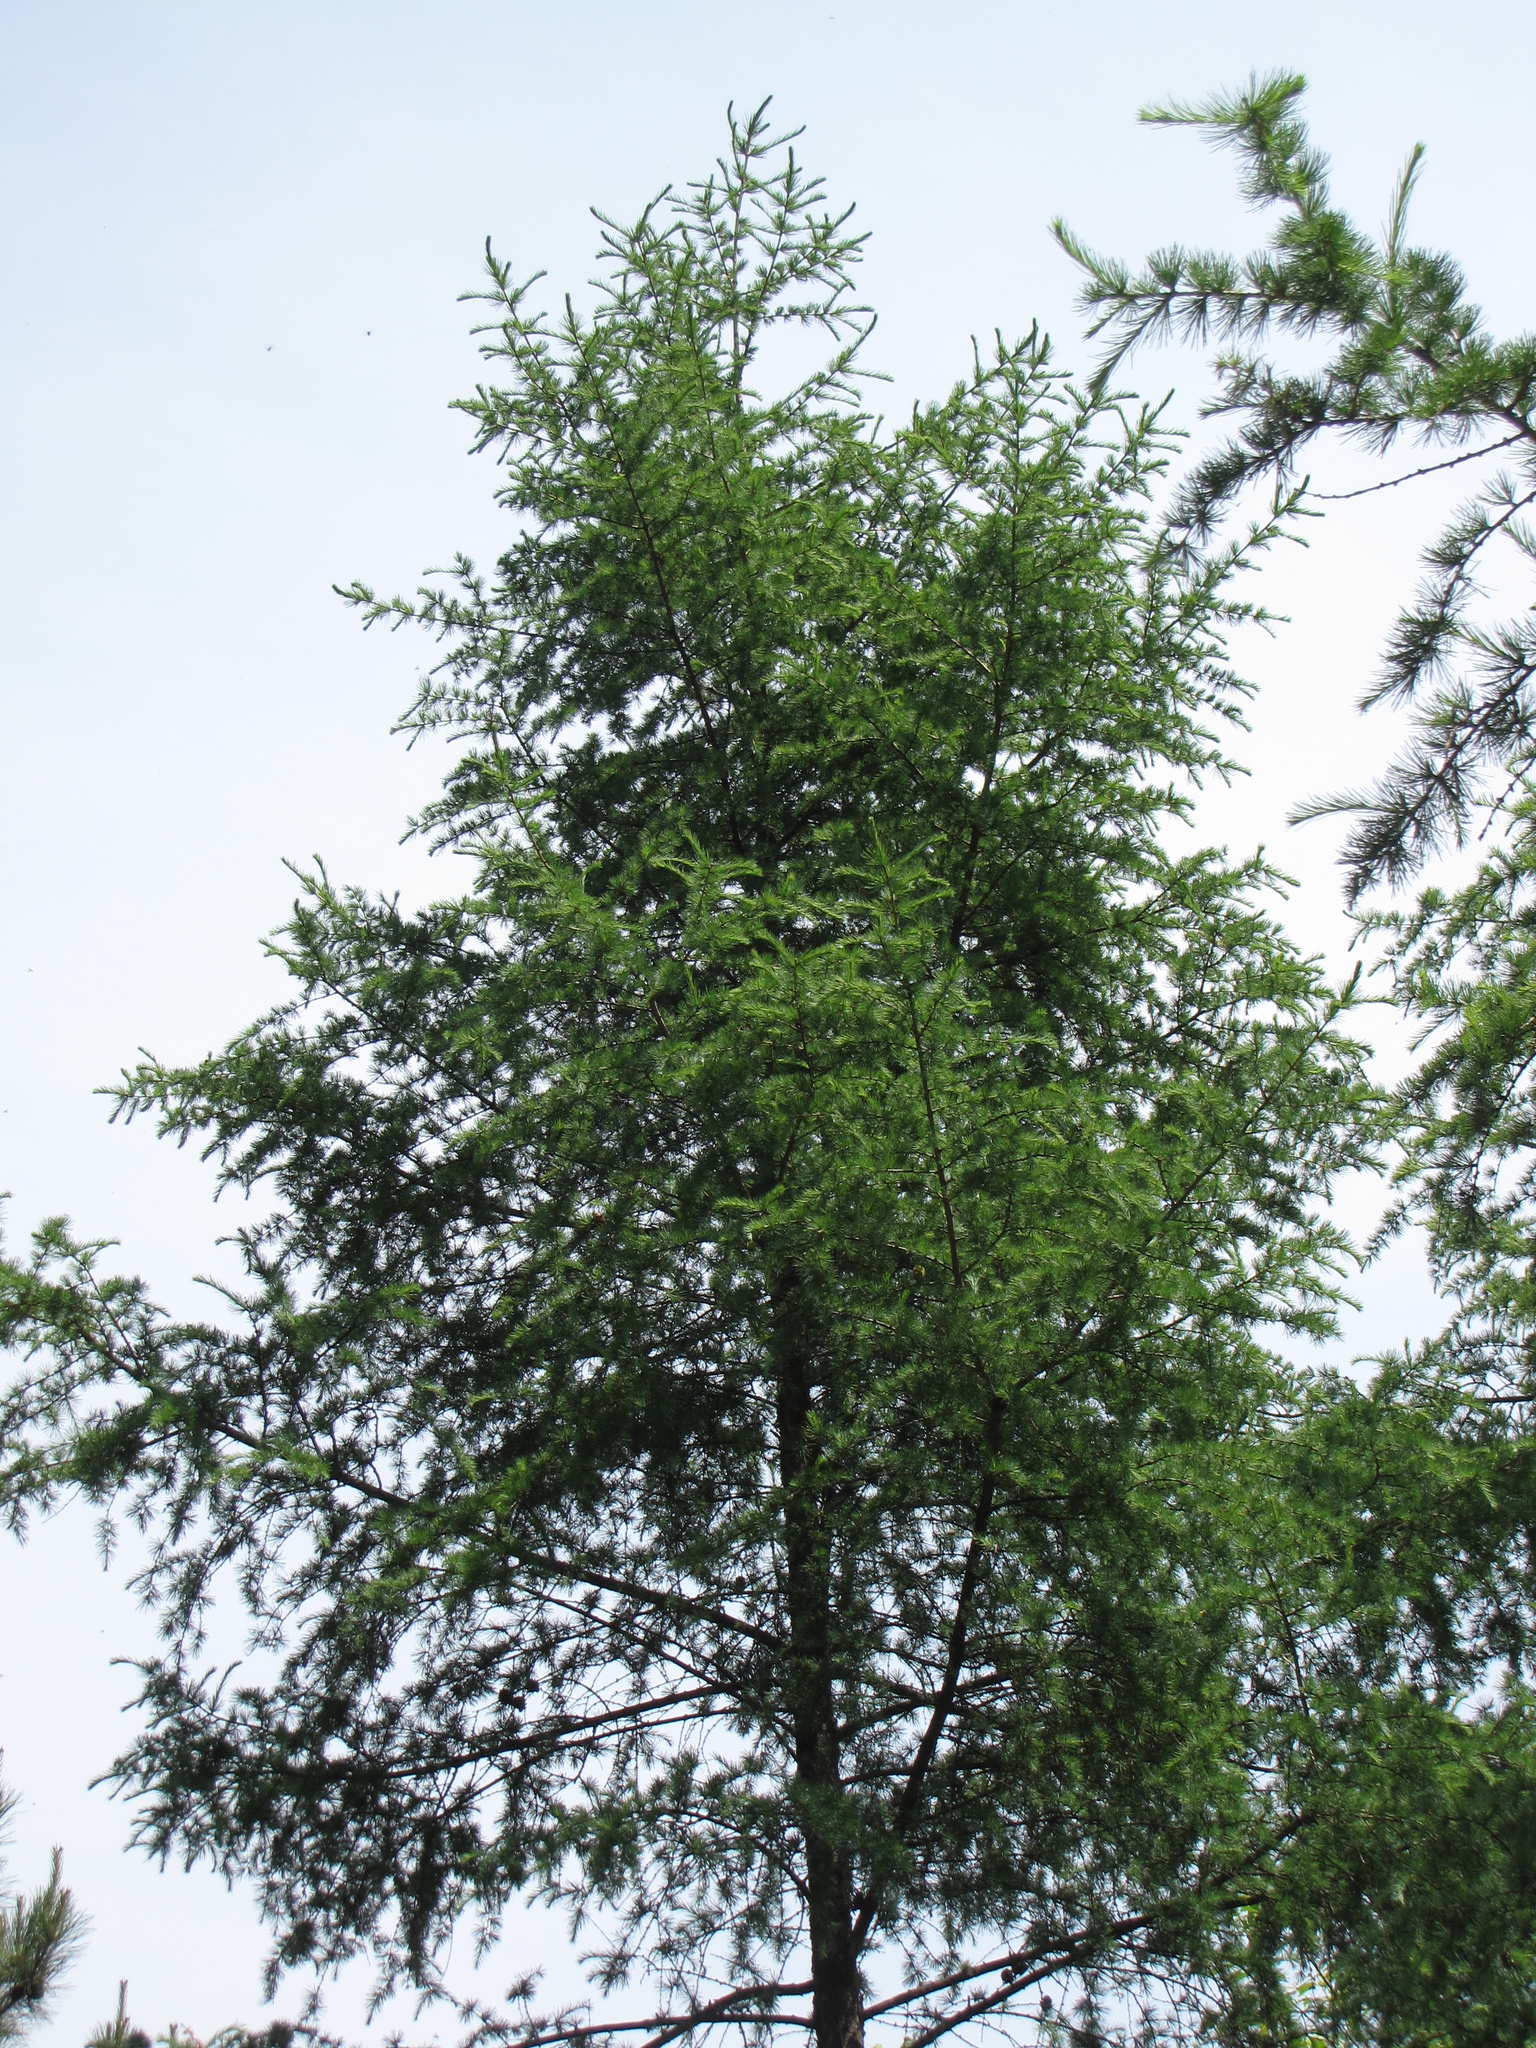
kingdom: Plantae
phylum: Tracheophyta
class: Pinopsida
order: Pinales
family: Pinaceae
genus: Larix
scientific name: Larix gmelinii
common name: Dahurian larch
